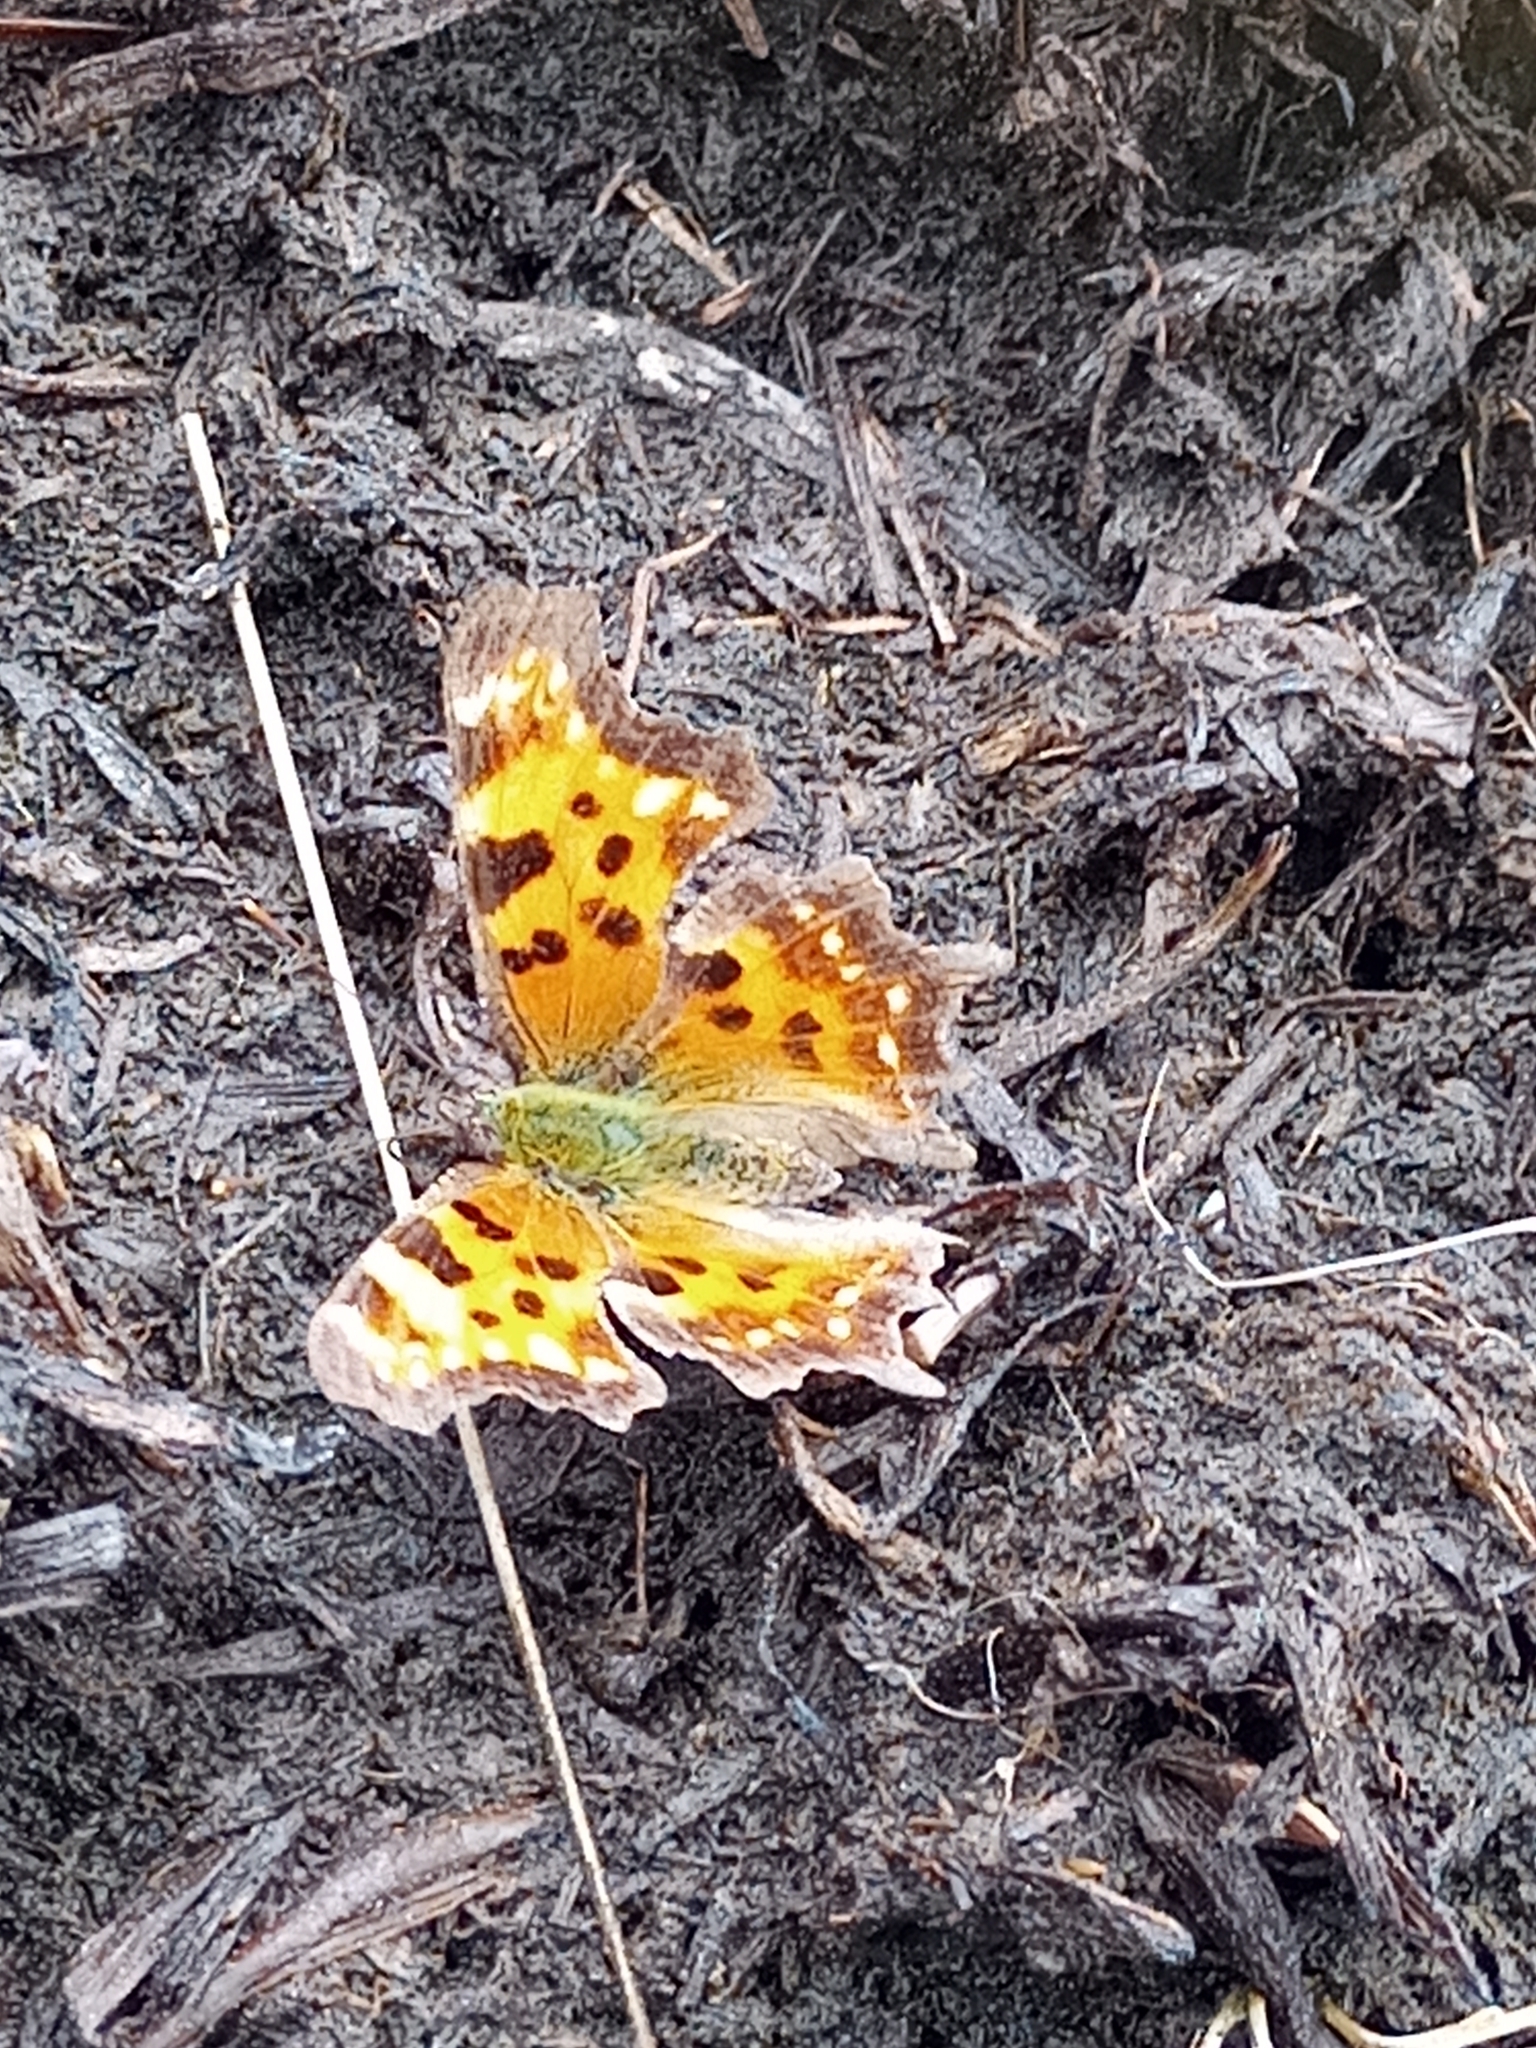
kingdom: Animalia
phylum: Arthropoda
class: Insecta
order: Lepidoptera
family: Nymphalidae
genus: Polygonia
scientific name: Polygonia faunus
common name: Green comma
